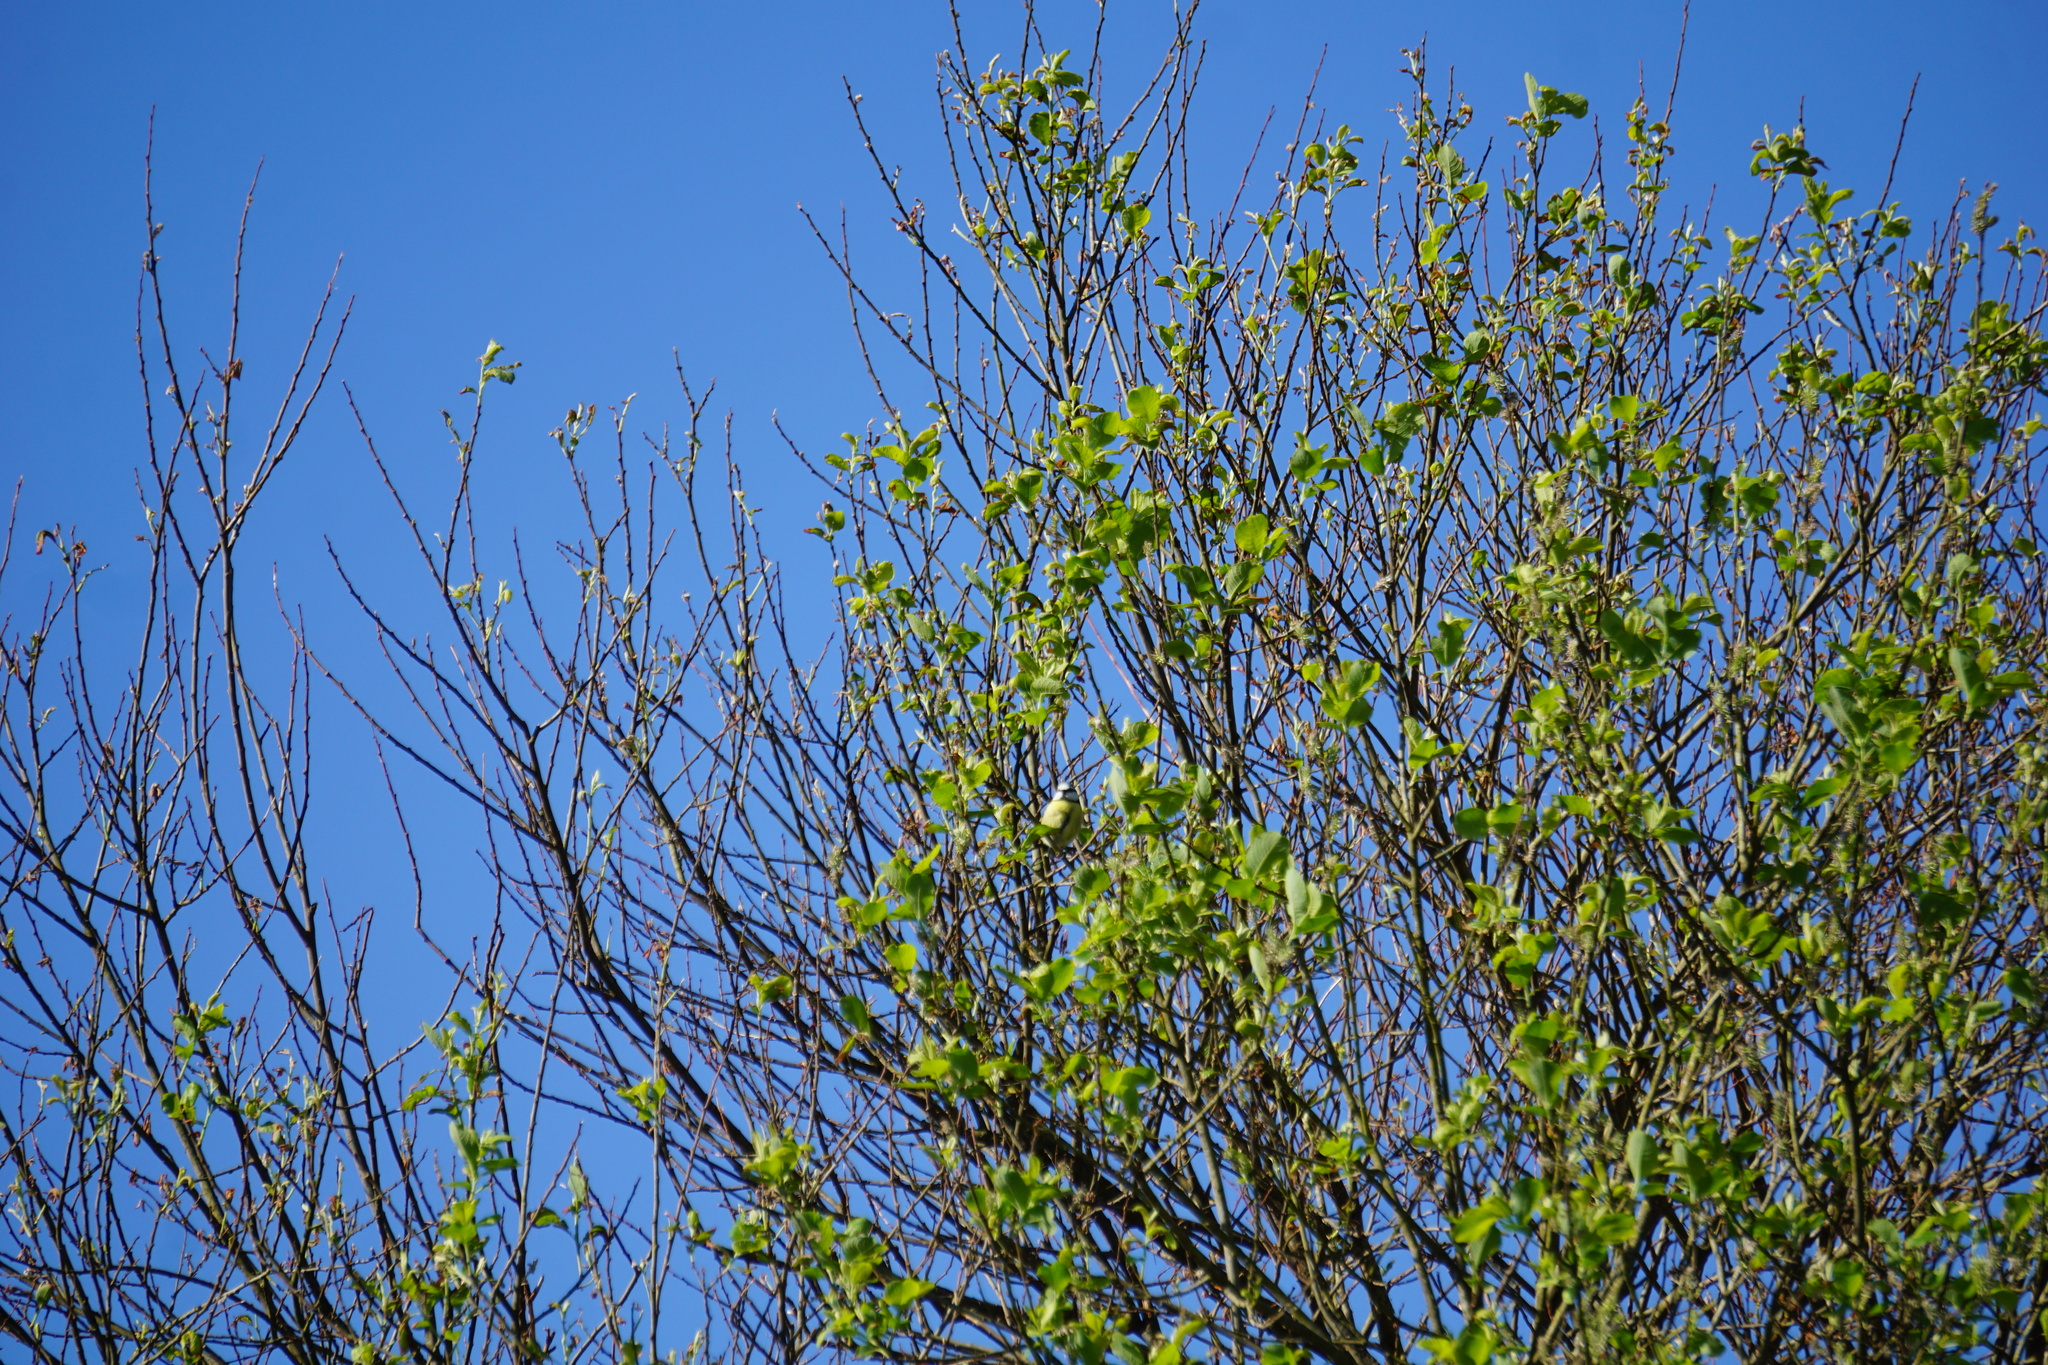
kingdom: Animalia
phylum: Chordata
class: Aves
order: Passeriformes
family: Paridae
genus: Cyanistes
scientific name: Cyanistes caeruleus
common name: Eurasian blue tit
